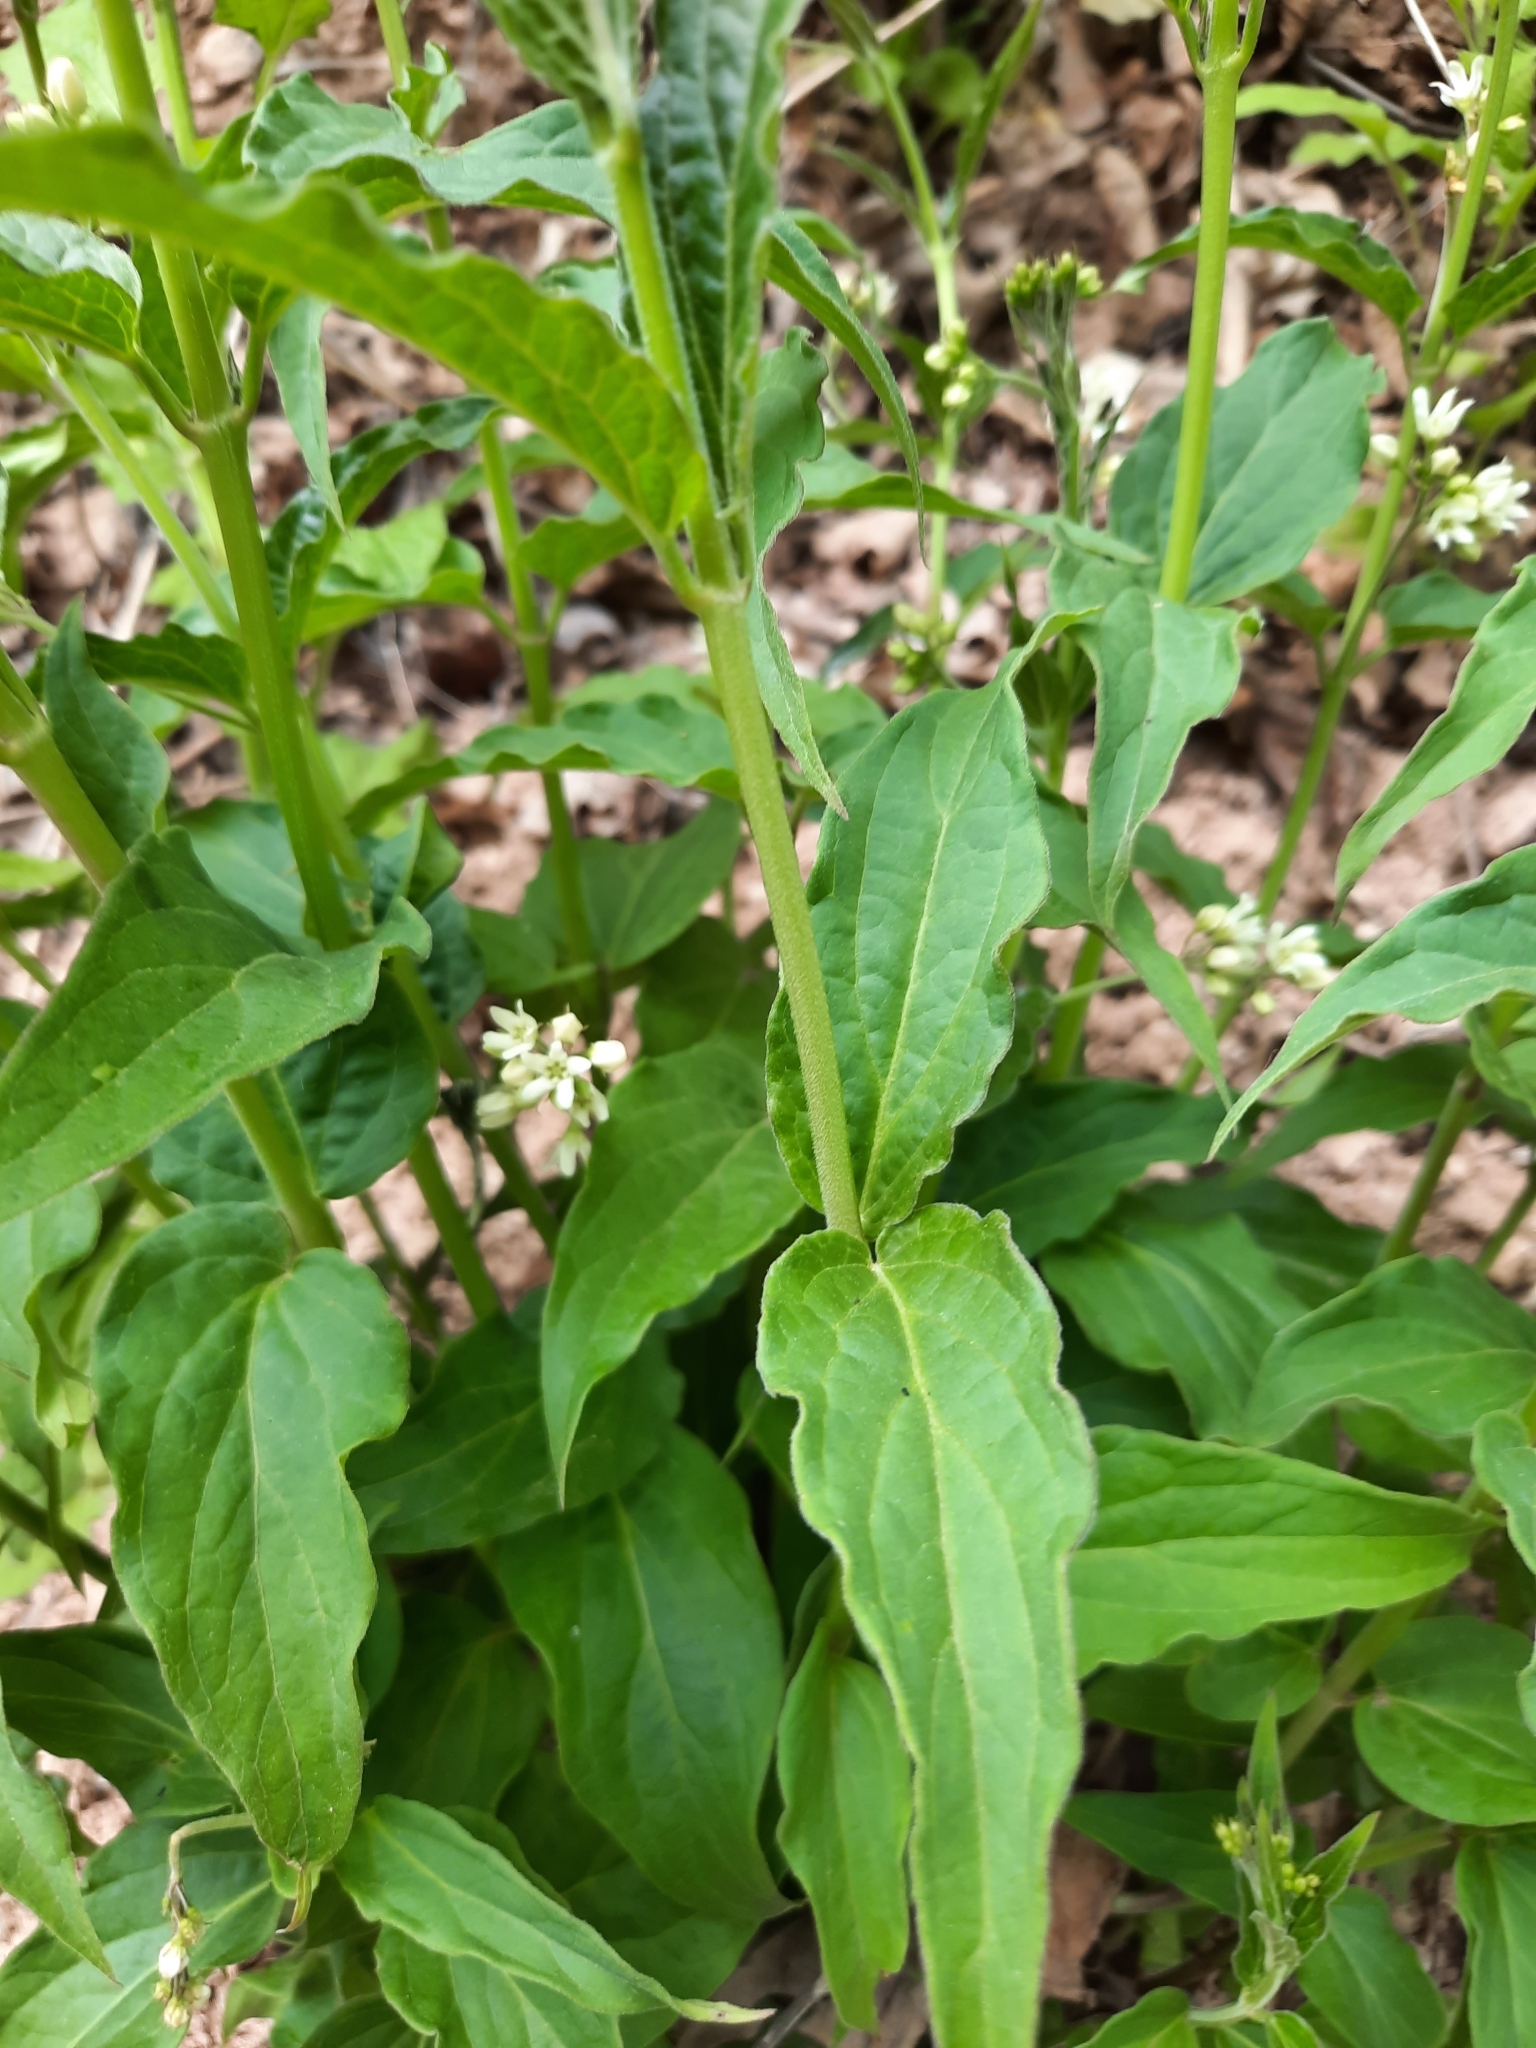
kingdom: Plantae
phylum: Tracheophyta
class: Magnoliopsida
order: Gentianales
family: Apocynaceae
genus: Vincetoxicum
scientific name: Vincetoxicum hirundinaria
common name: White swallowwort
